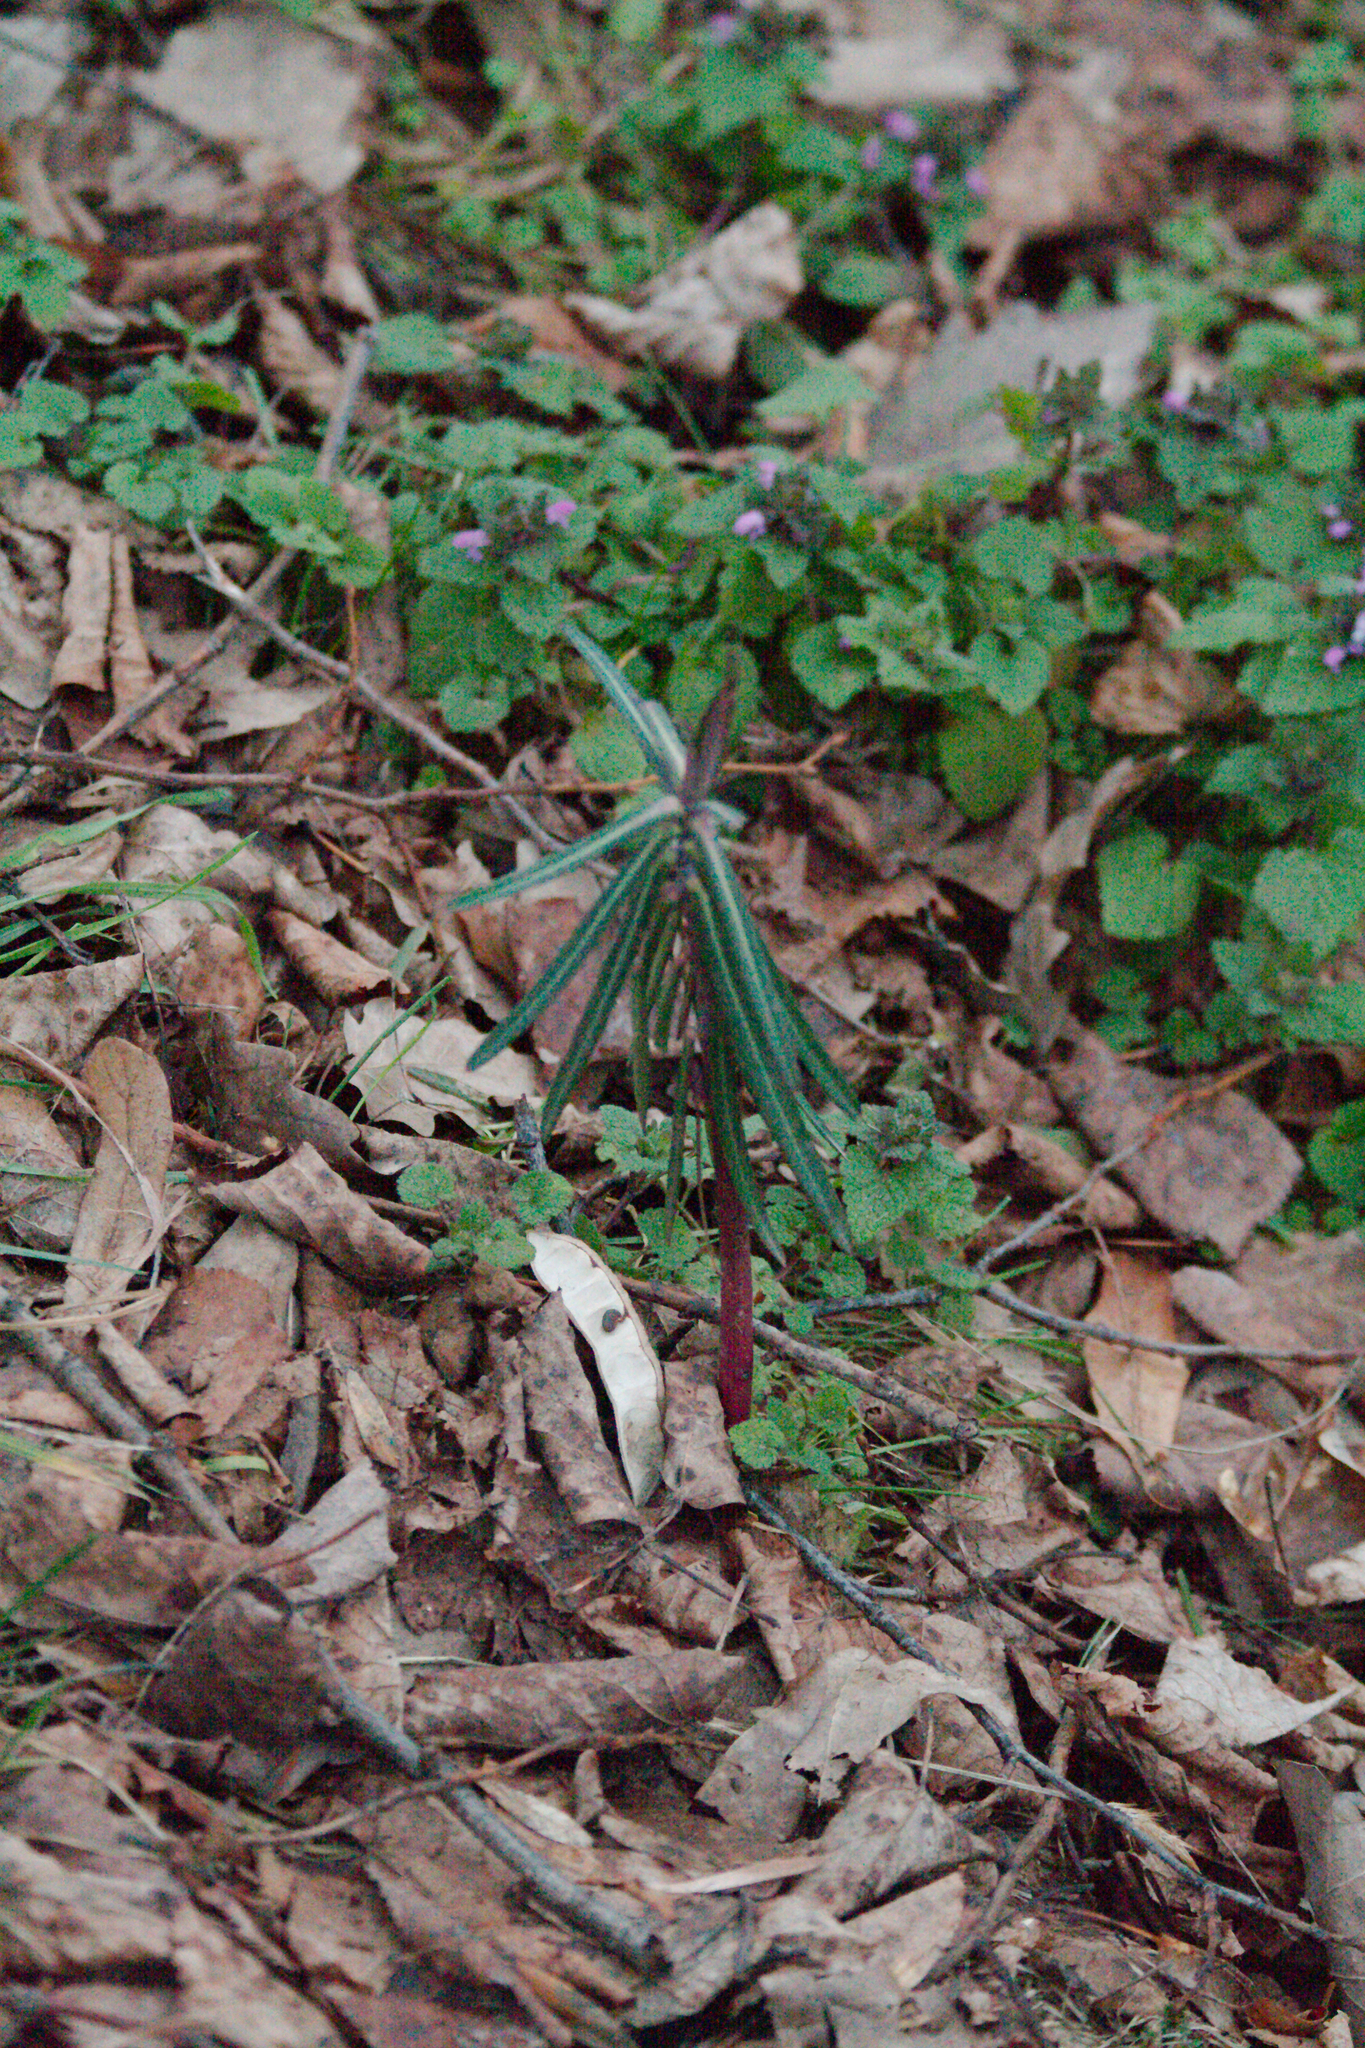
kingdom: Plantae
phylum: Tracheophyta
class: Magnoliopsida
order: Malpighiales
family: Euphorbiaceae
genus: Euphorbia
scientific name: Euphorbia lathyris
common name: Caper spurge
